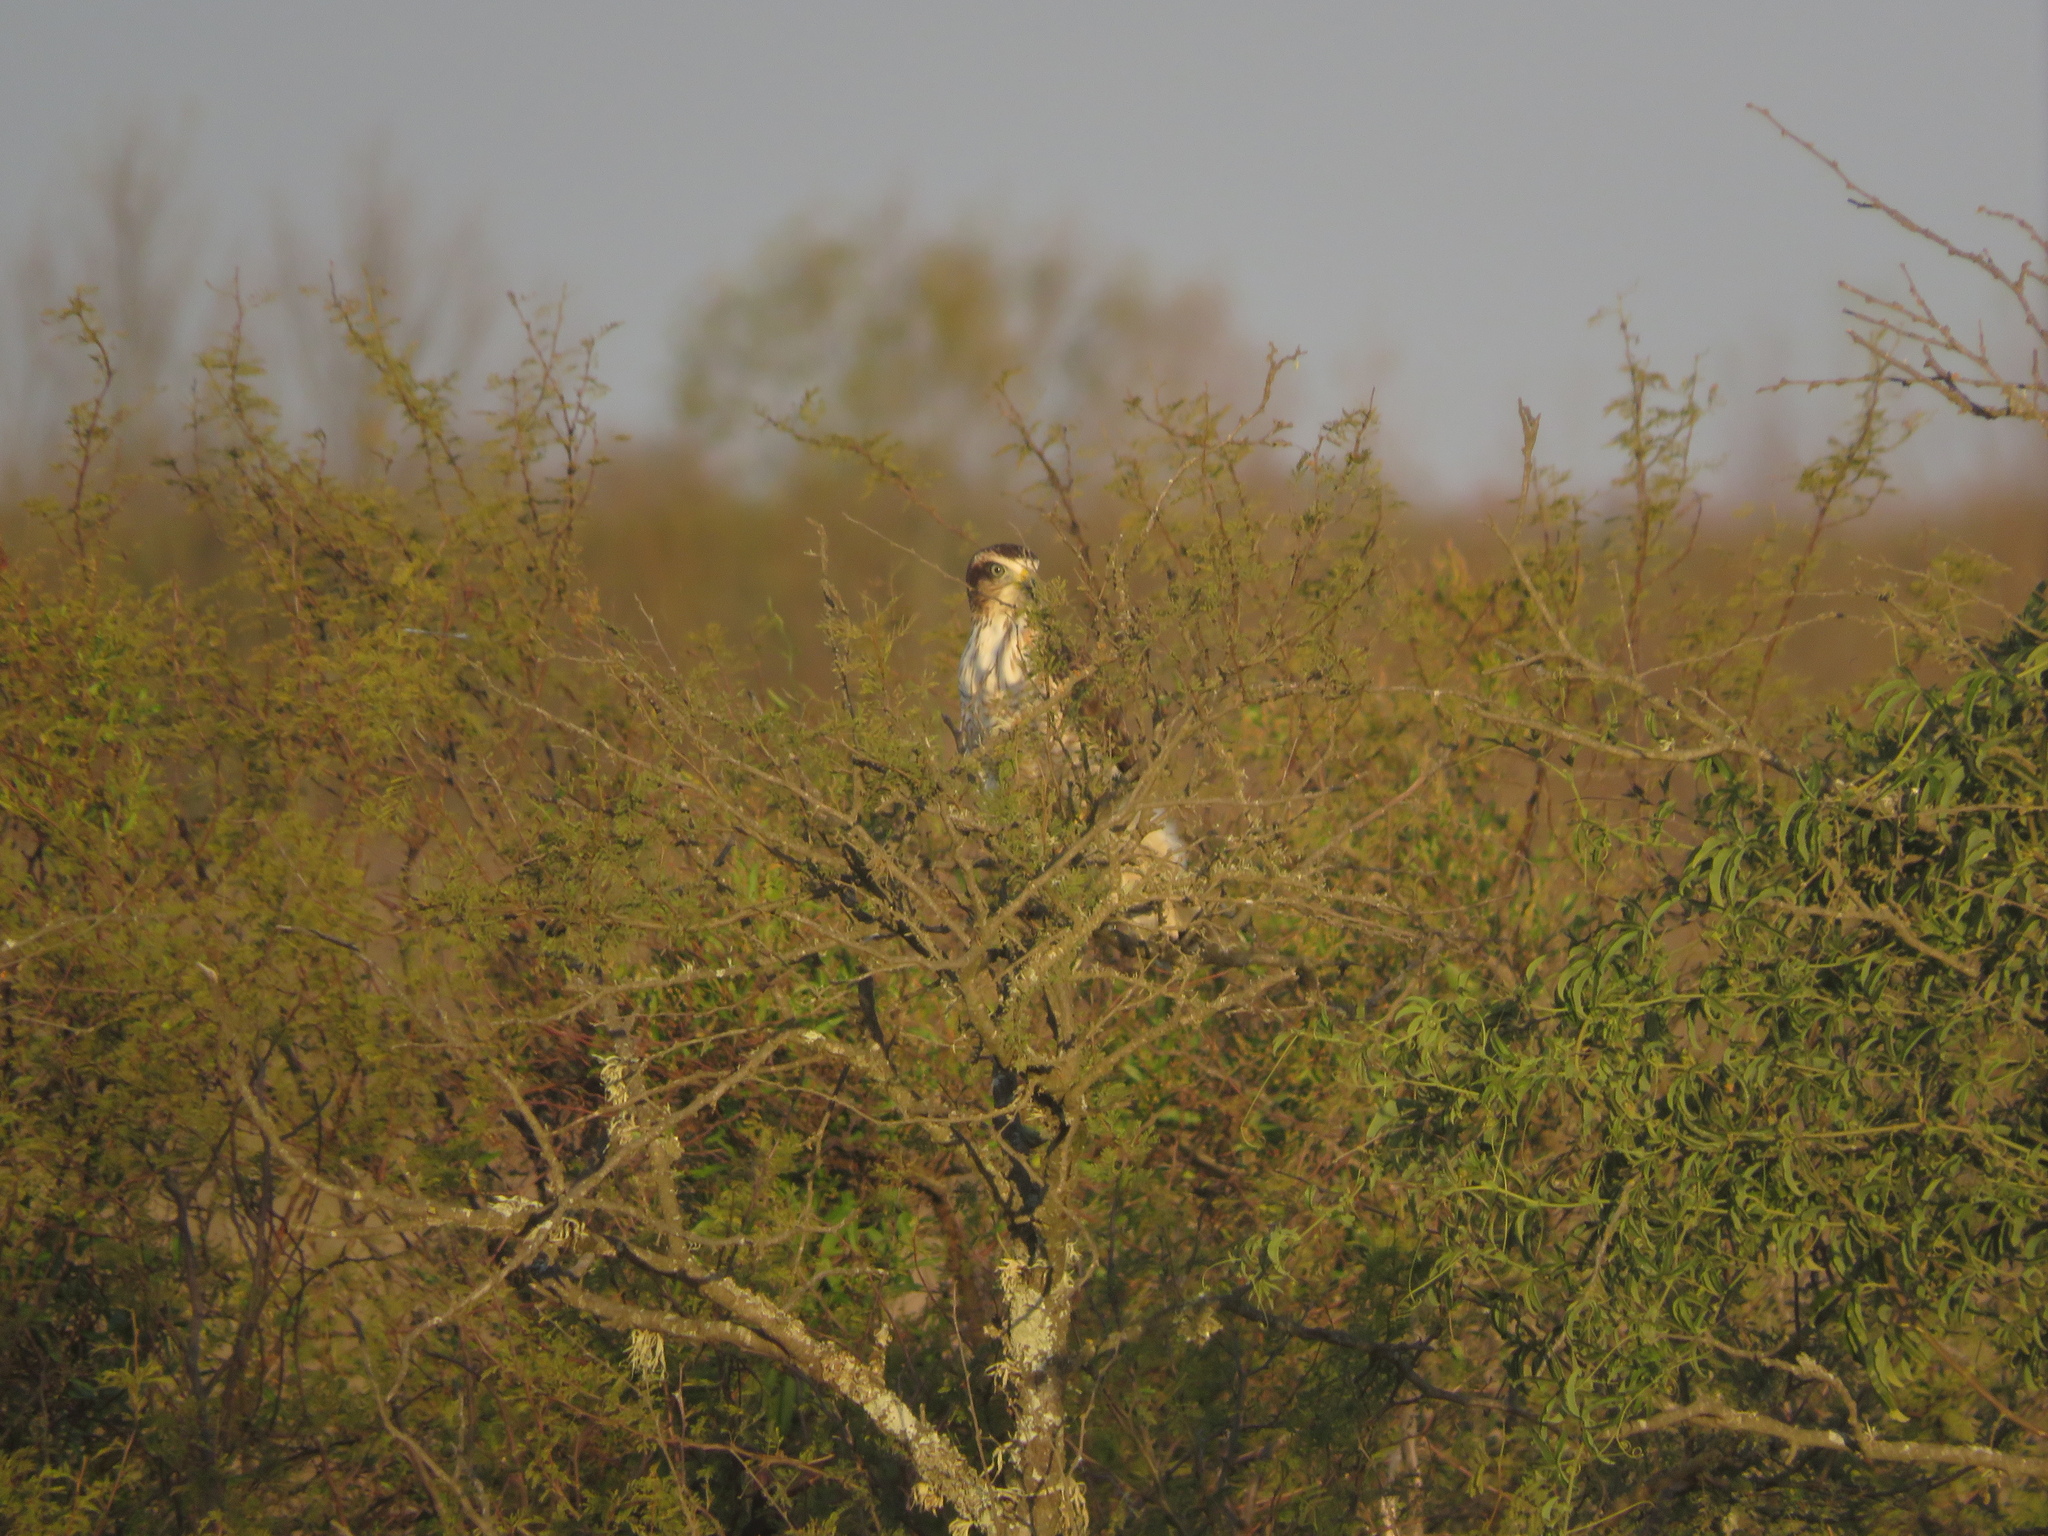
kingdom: Animalia
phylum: Chordata
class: Aves
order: Accipitriformes
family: Accipitridae
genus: Rupornis
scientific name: Rupornis magnirostris
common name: Roadside hawk
